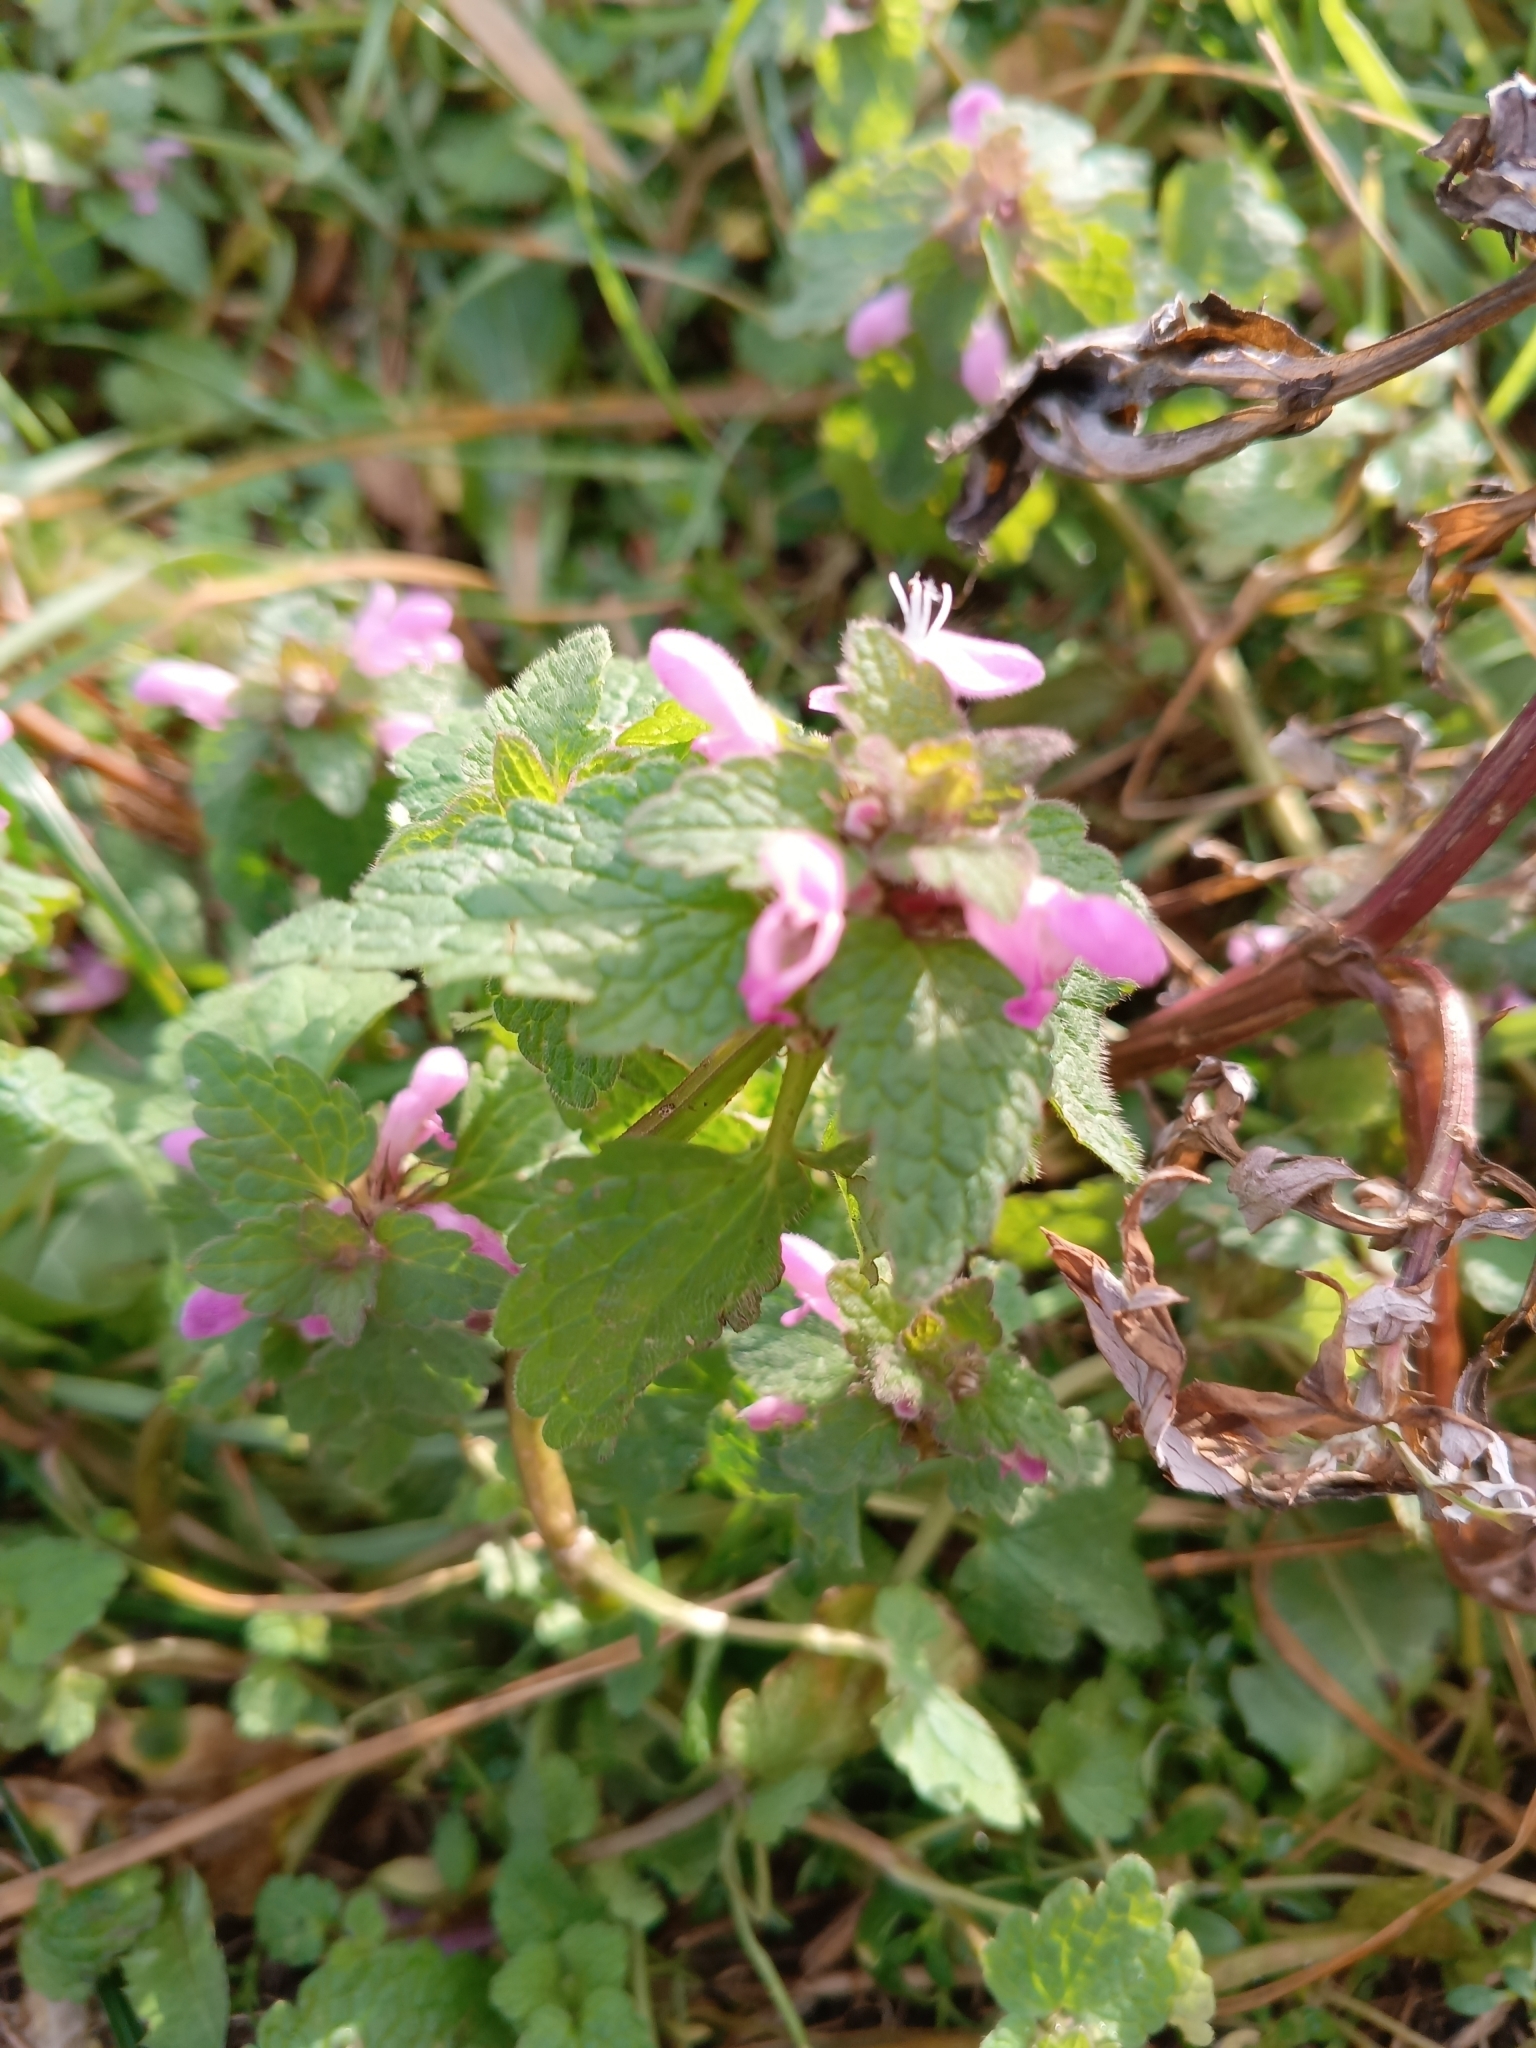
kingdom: Plantae
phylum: Tracheophyta
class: Magnoliopsida
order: Lamiales
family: Lamiaceae
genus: Lamium
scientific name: Lamium purpureum
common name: Red dead-nettle
